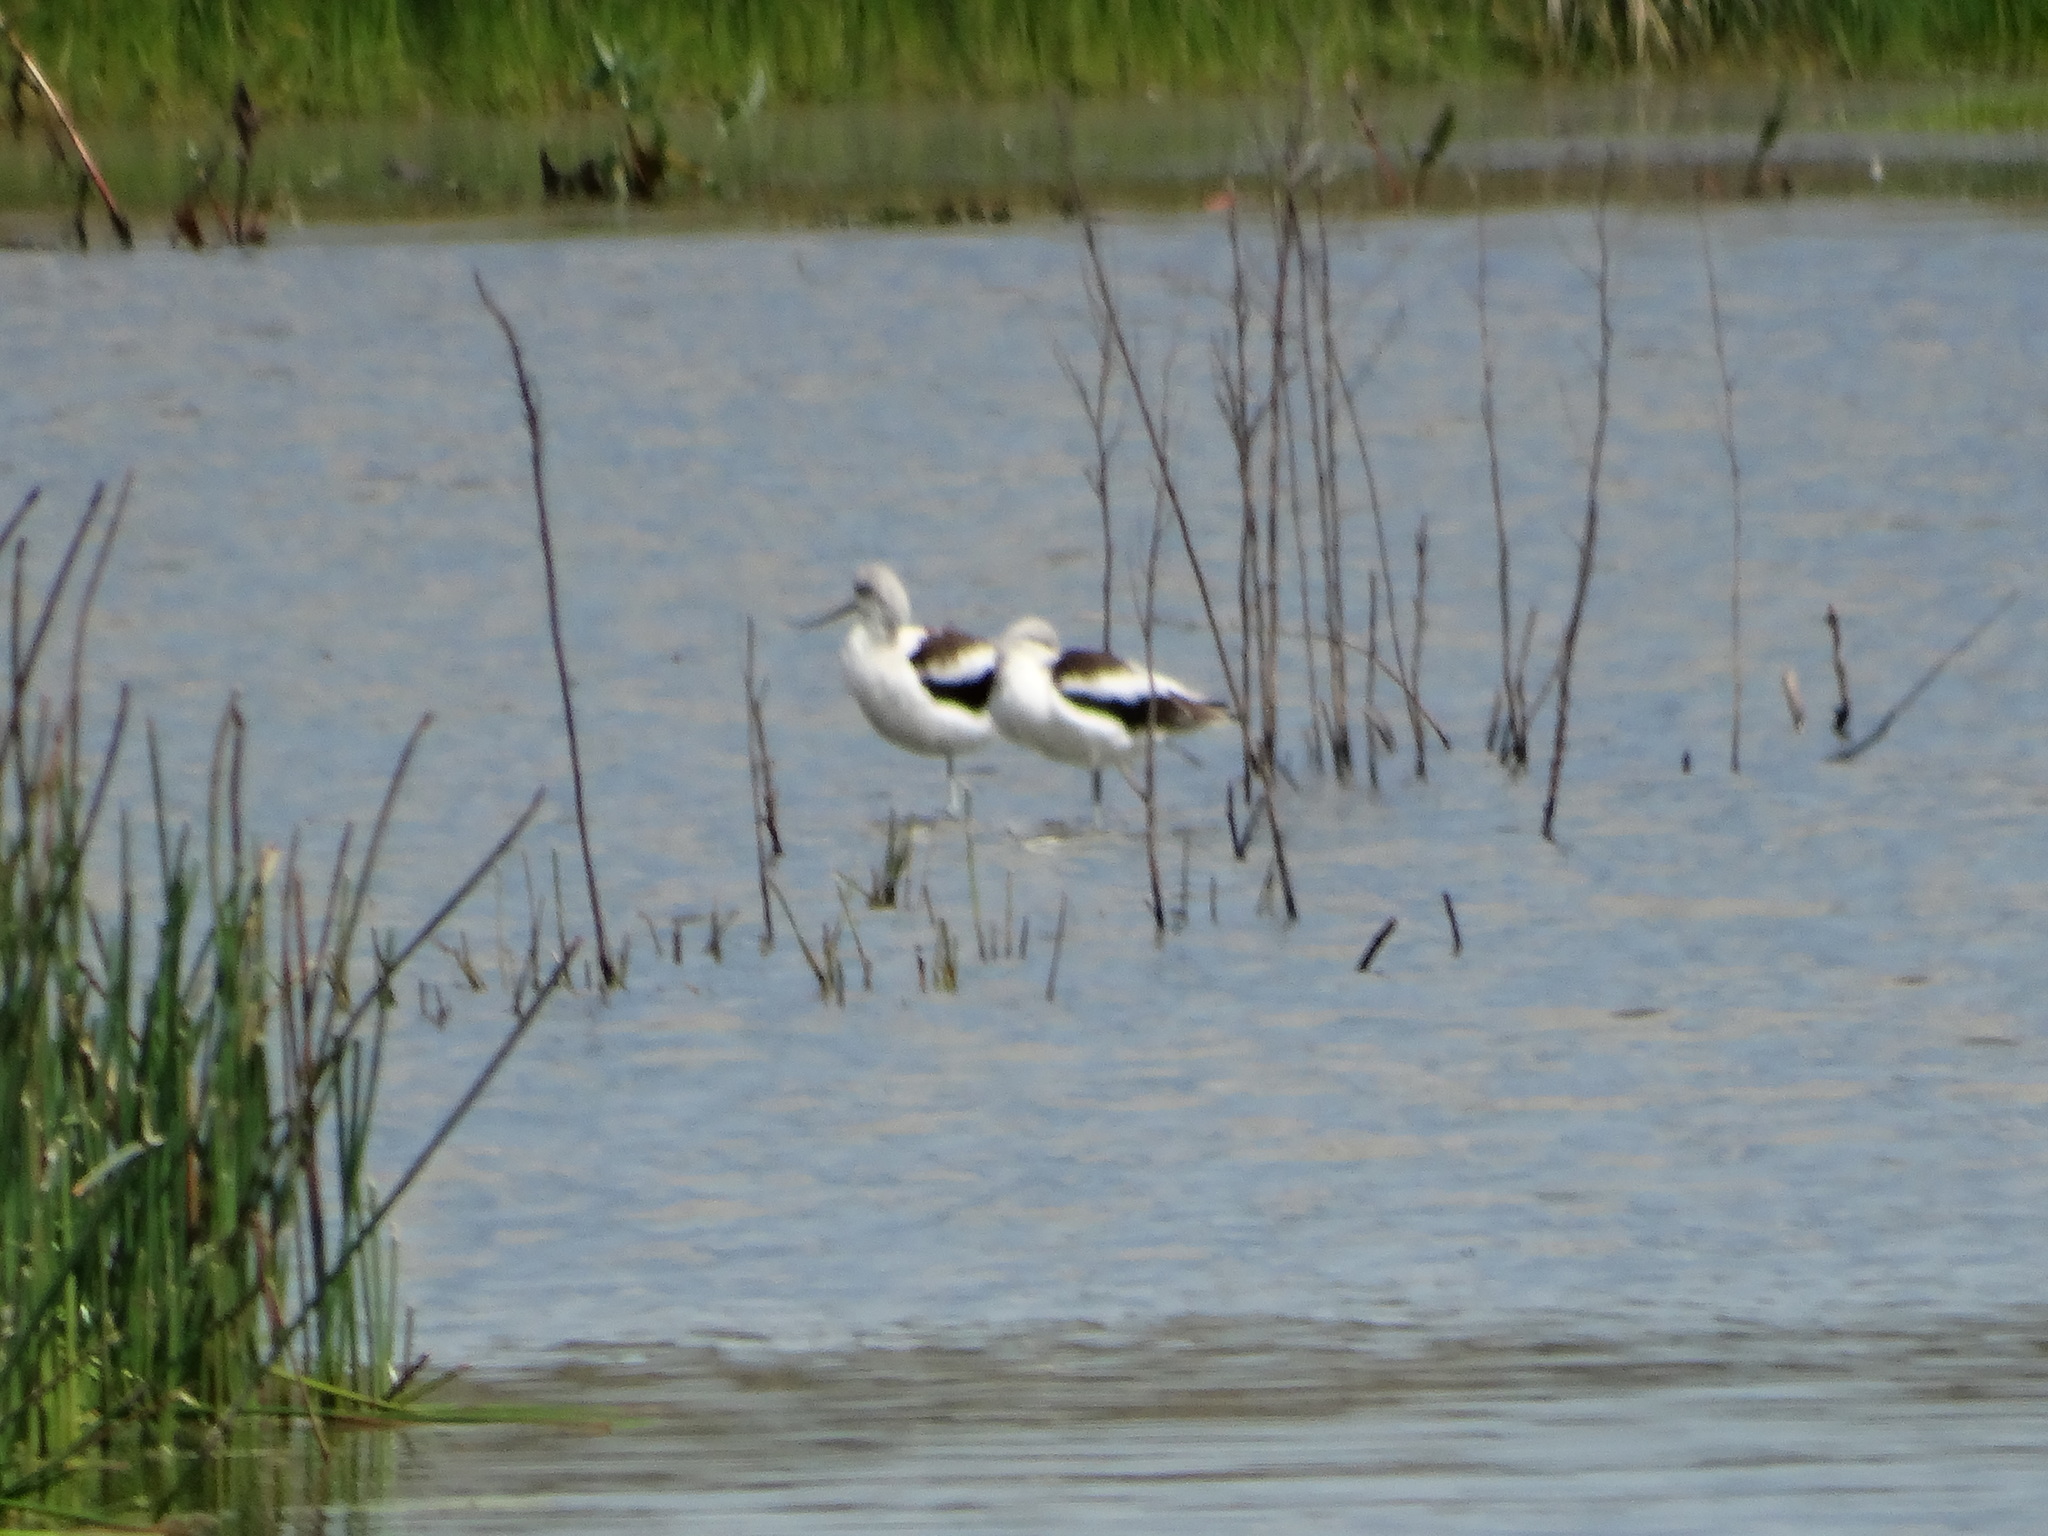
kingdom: Animalia
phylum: Chordata
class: Aves
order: Charadriiformes
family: Recurvirostridae
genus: Recurvirostra
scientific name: Recurvirostra americana
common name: American avocet
